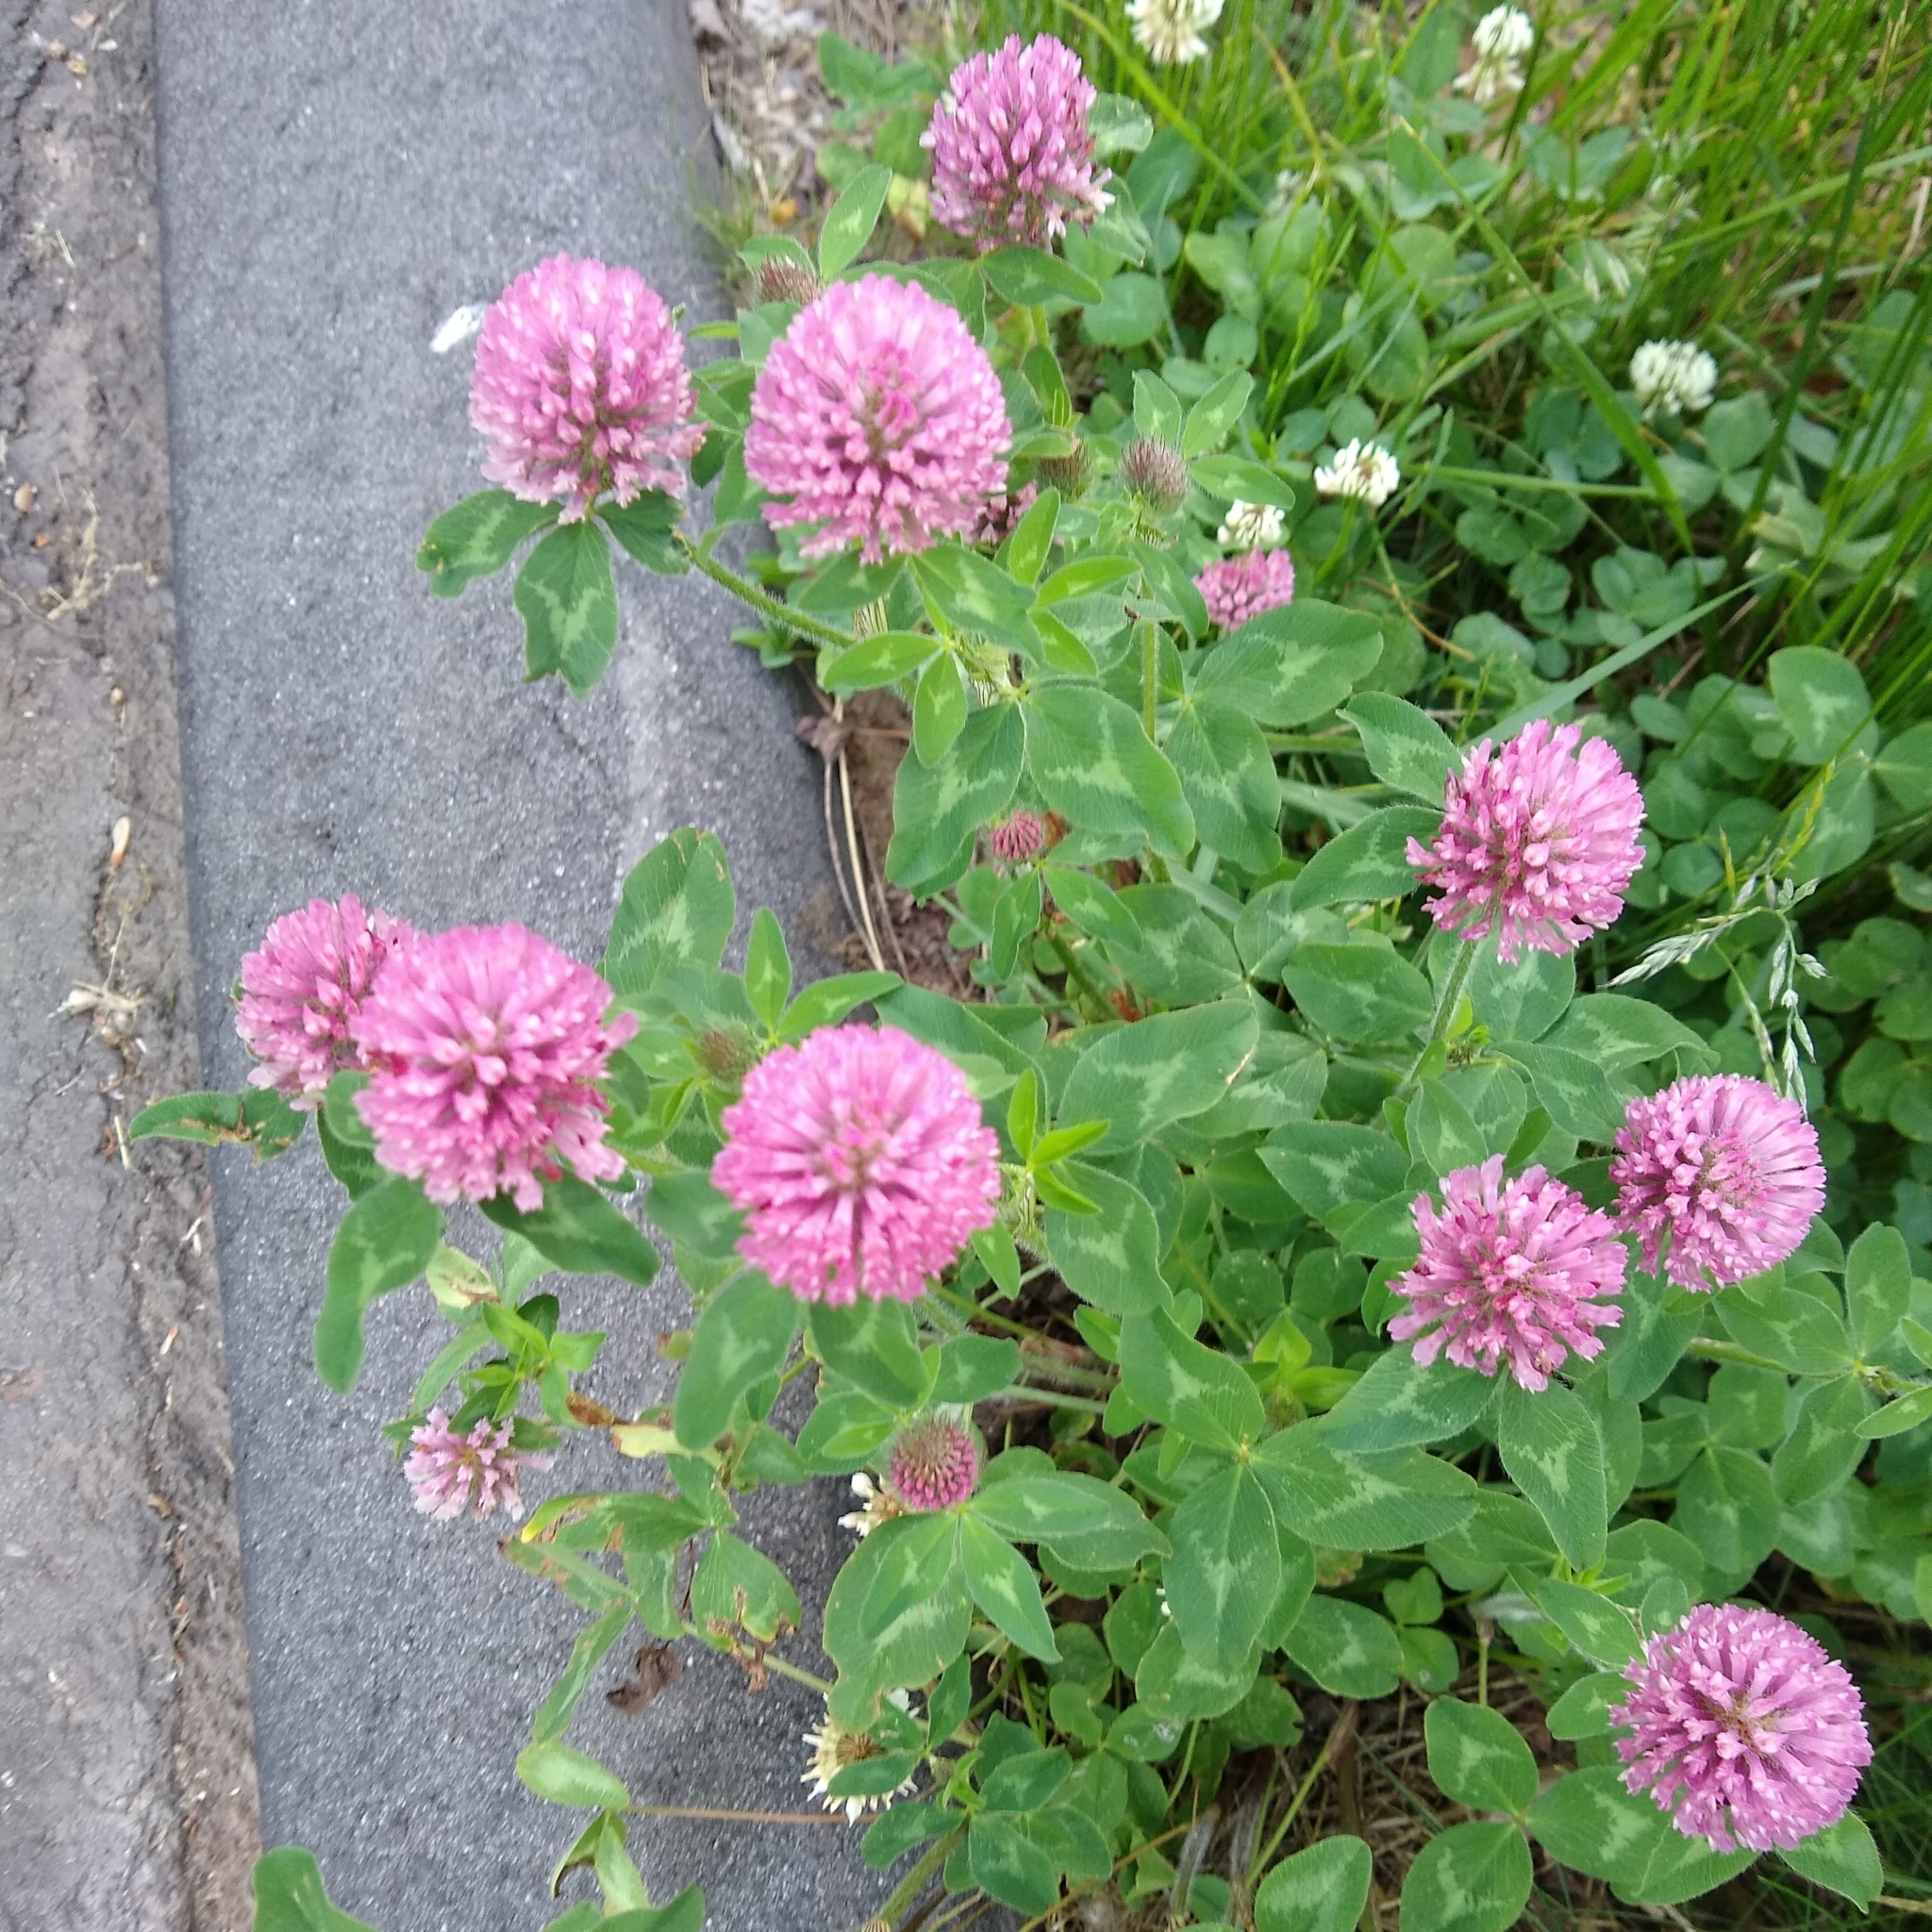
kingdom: Plantae
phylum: Tracheophyta
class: Magnoliopsida
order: Fabales
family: Fabaceae
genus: Trifolium
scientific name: Trifolium pratense
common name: Red clover
